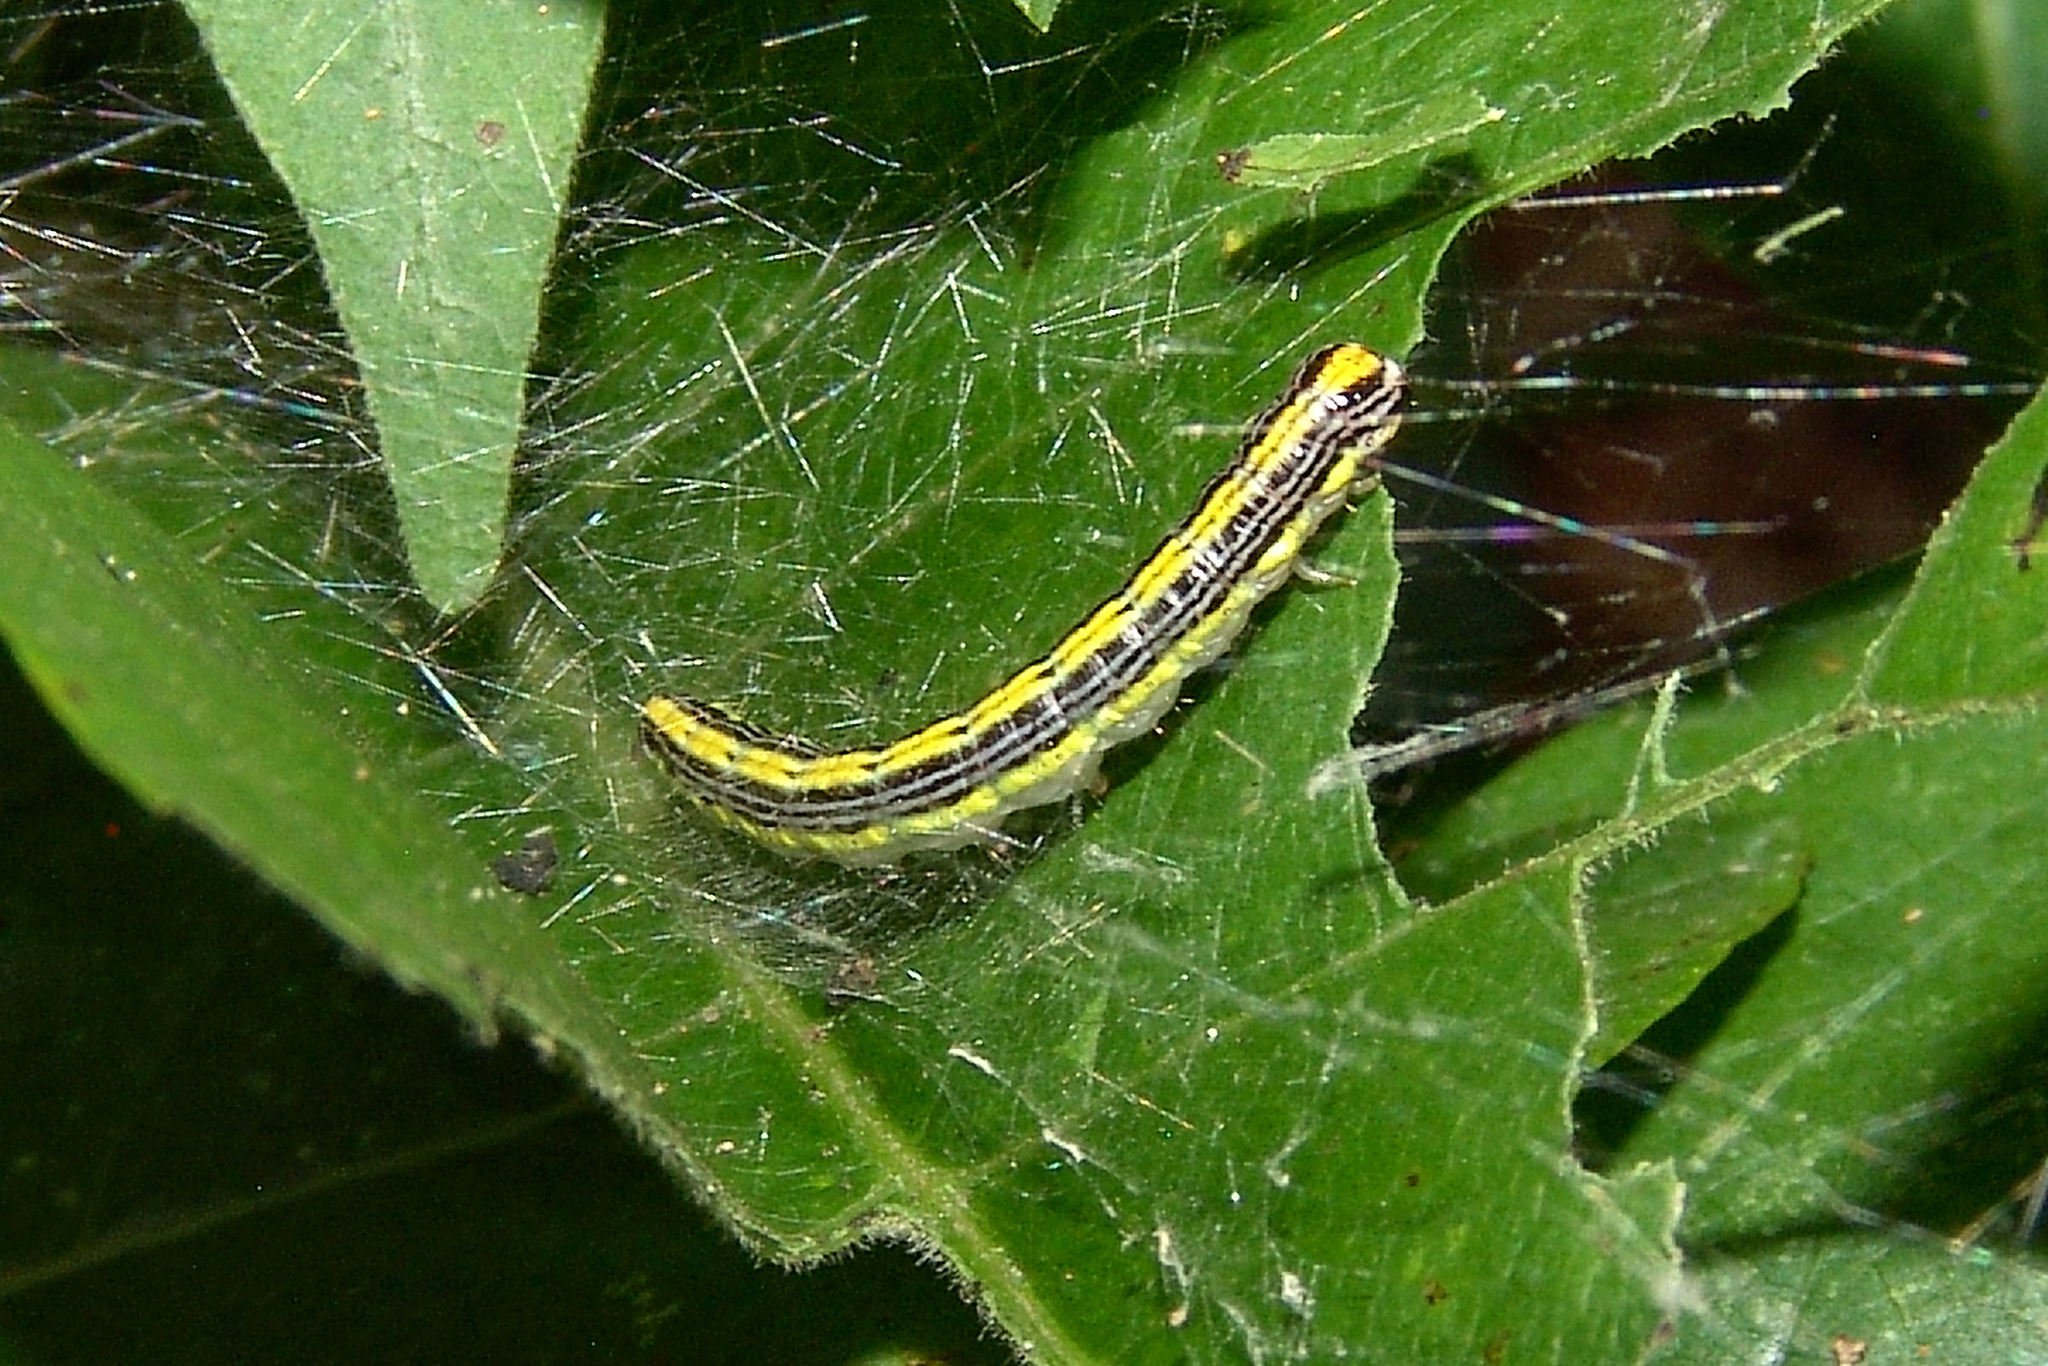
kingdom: Animalia
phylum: Arthropoda
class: Insecta
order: Lepidoptera
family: Pyralidae
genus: Epipaschia
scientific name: Epipaschia superatalis
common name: Dimorphic macalla moth
